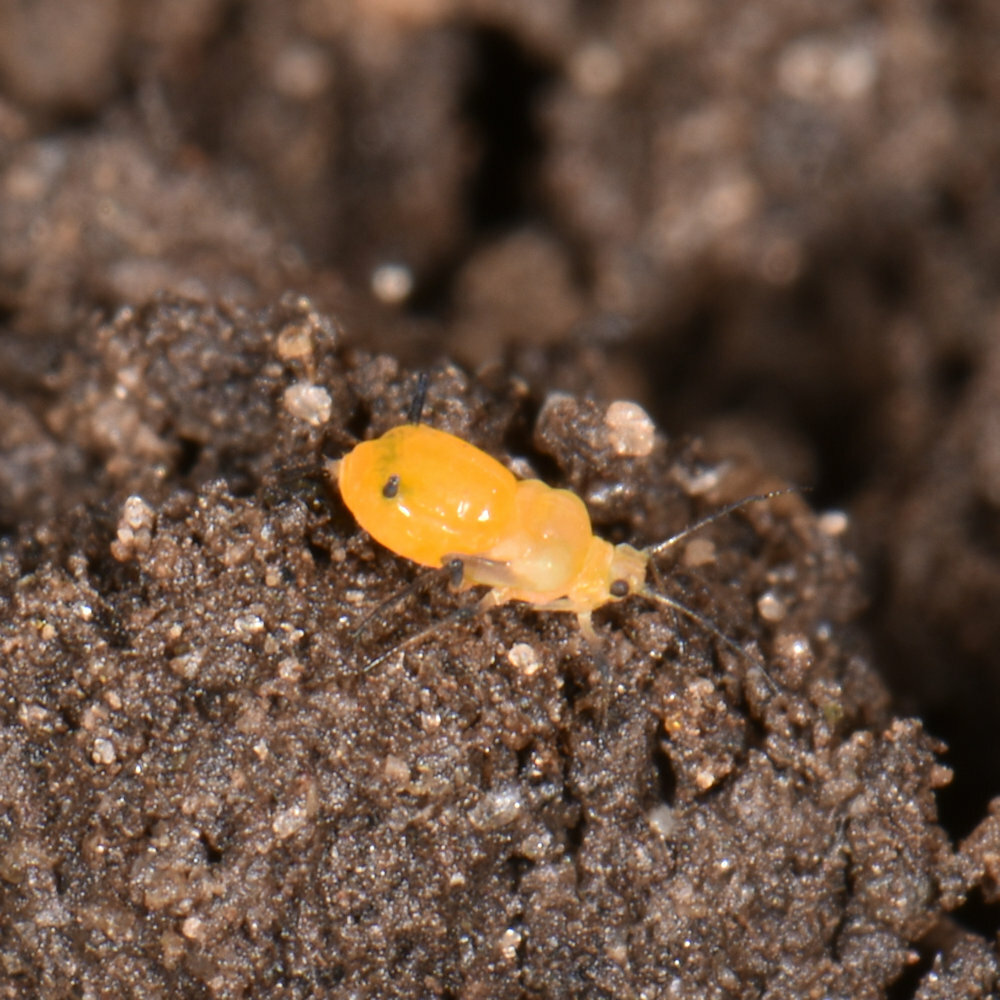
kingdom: Animalia
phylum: Arthropoda
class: Insecta
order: Hemiptera
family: Aphididae
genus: Aphis
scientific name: Aphis nerii
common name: Oleander aphid
